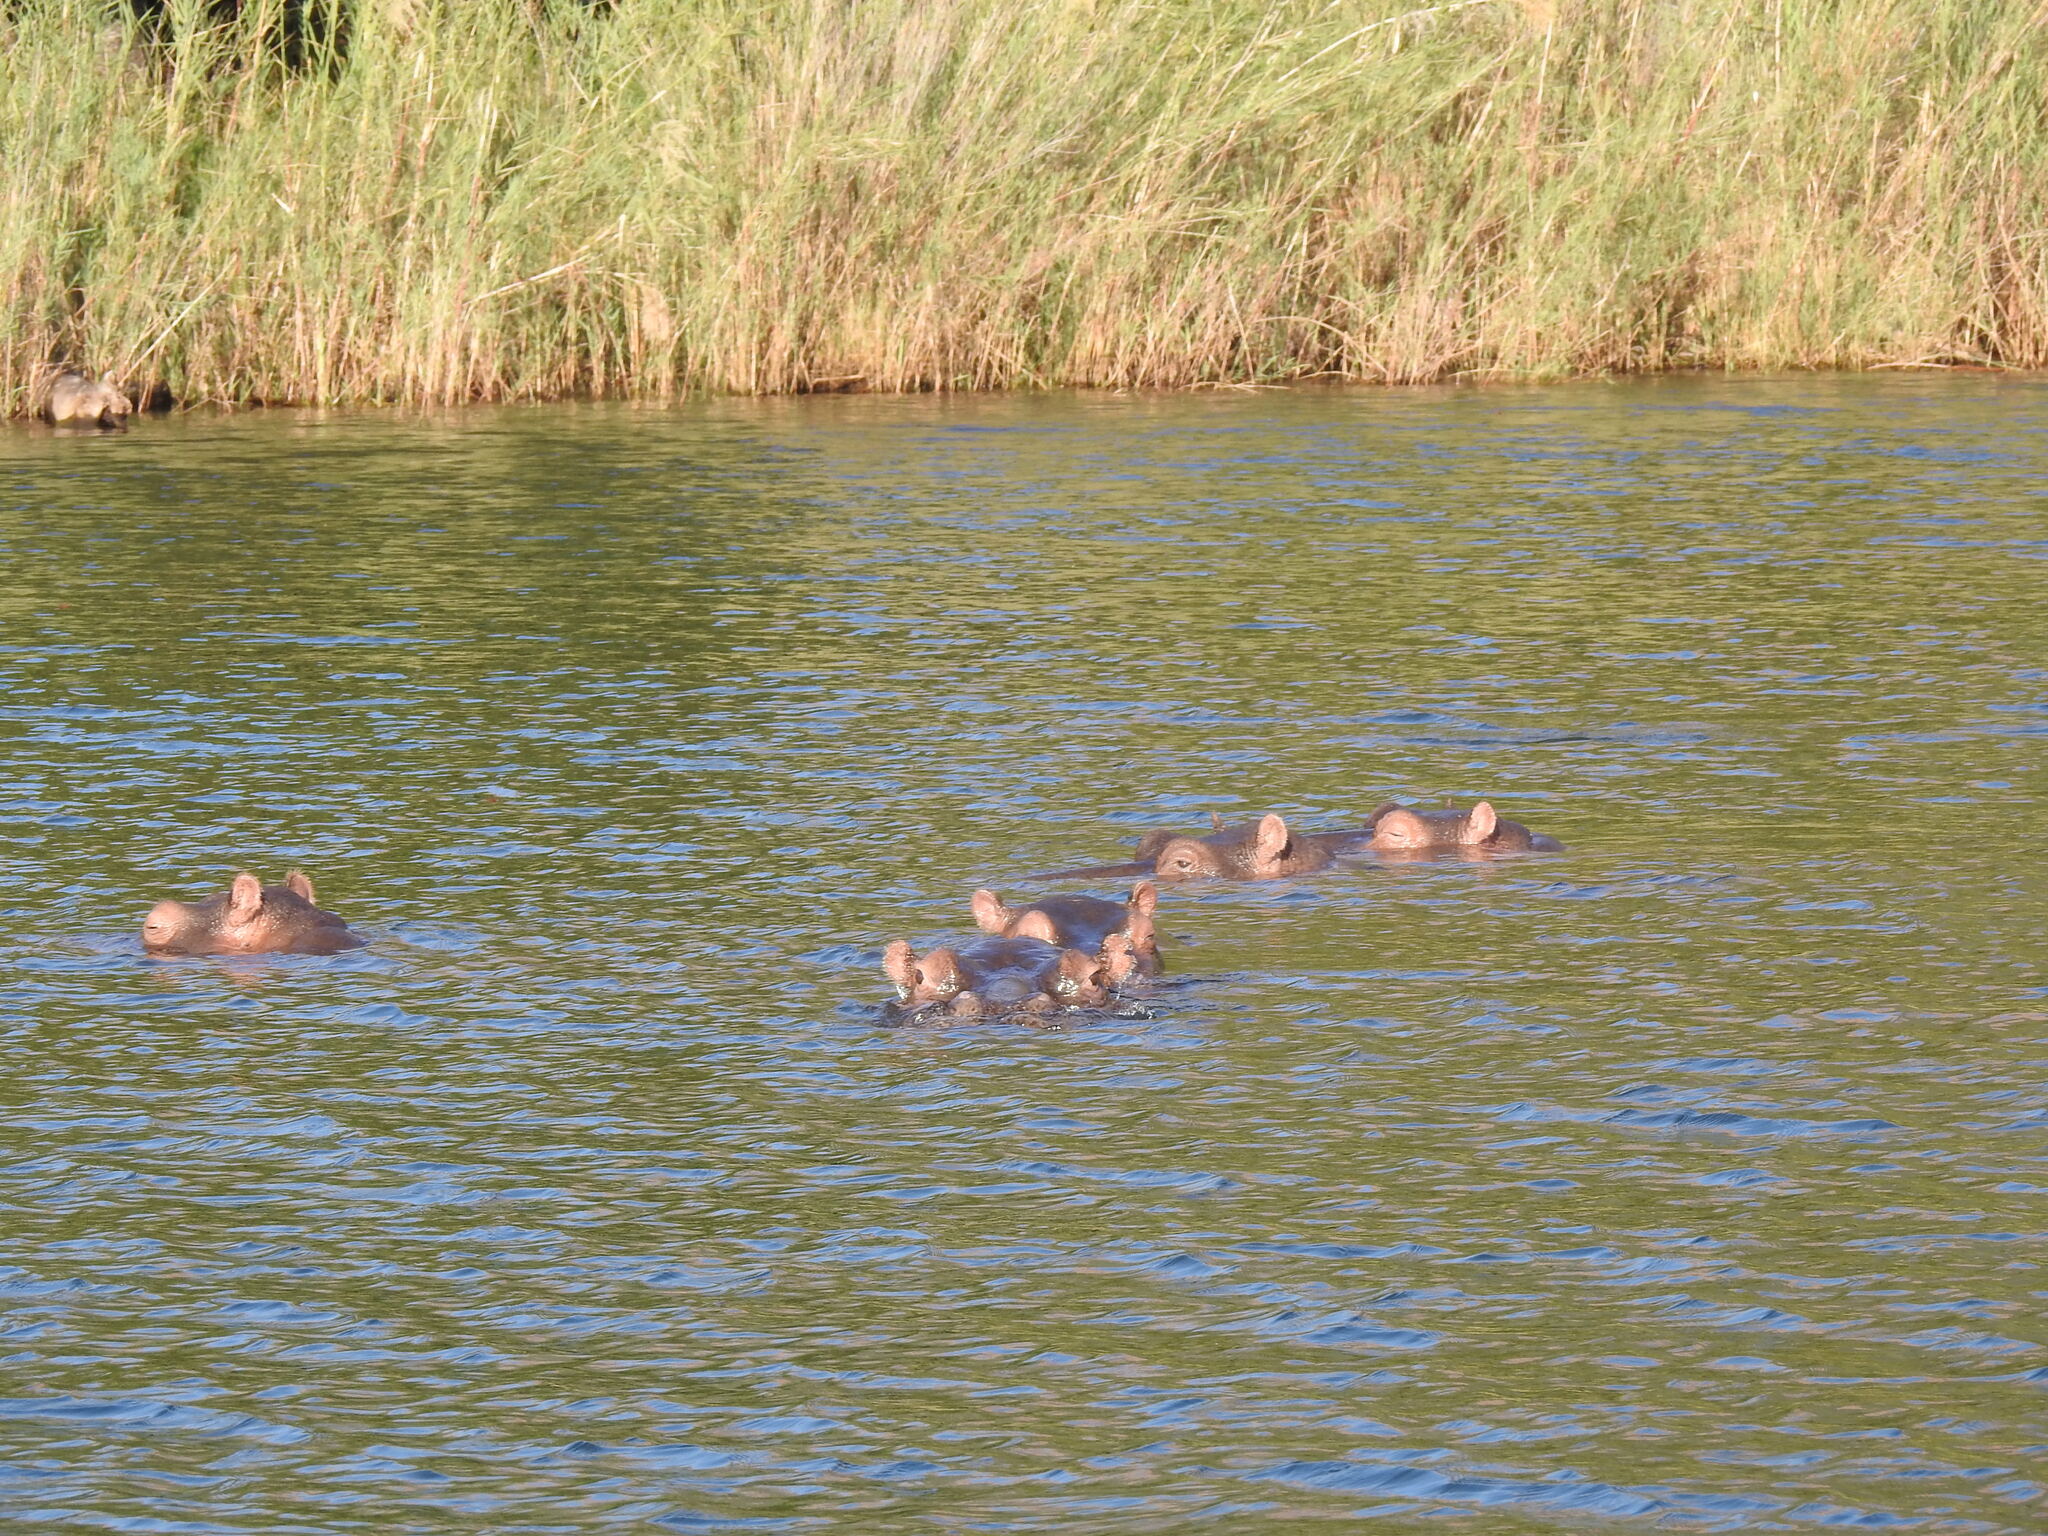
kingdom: Animalia
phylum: Chordata
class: Mammalia
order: Artiodactyla
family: Hippopotamidae
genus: Hippopotamus
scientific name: Hippopotamus amphibius
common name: Common hippopotamus
